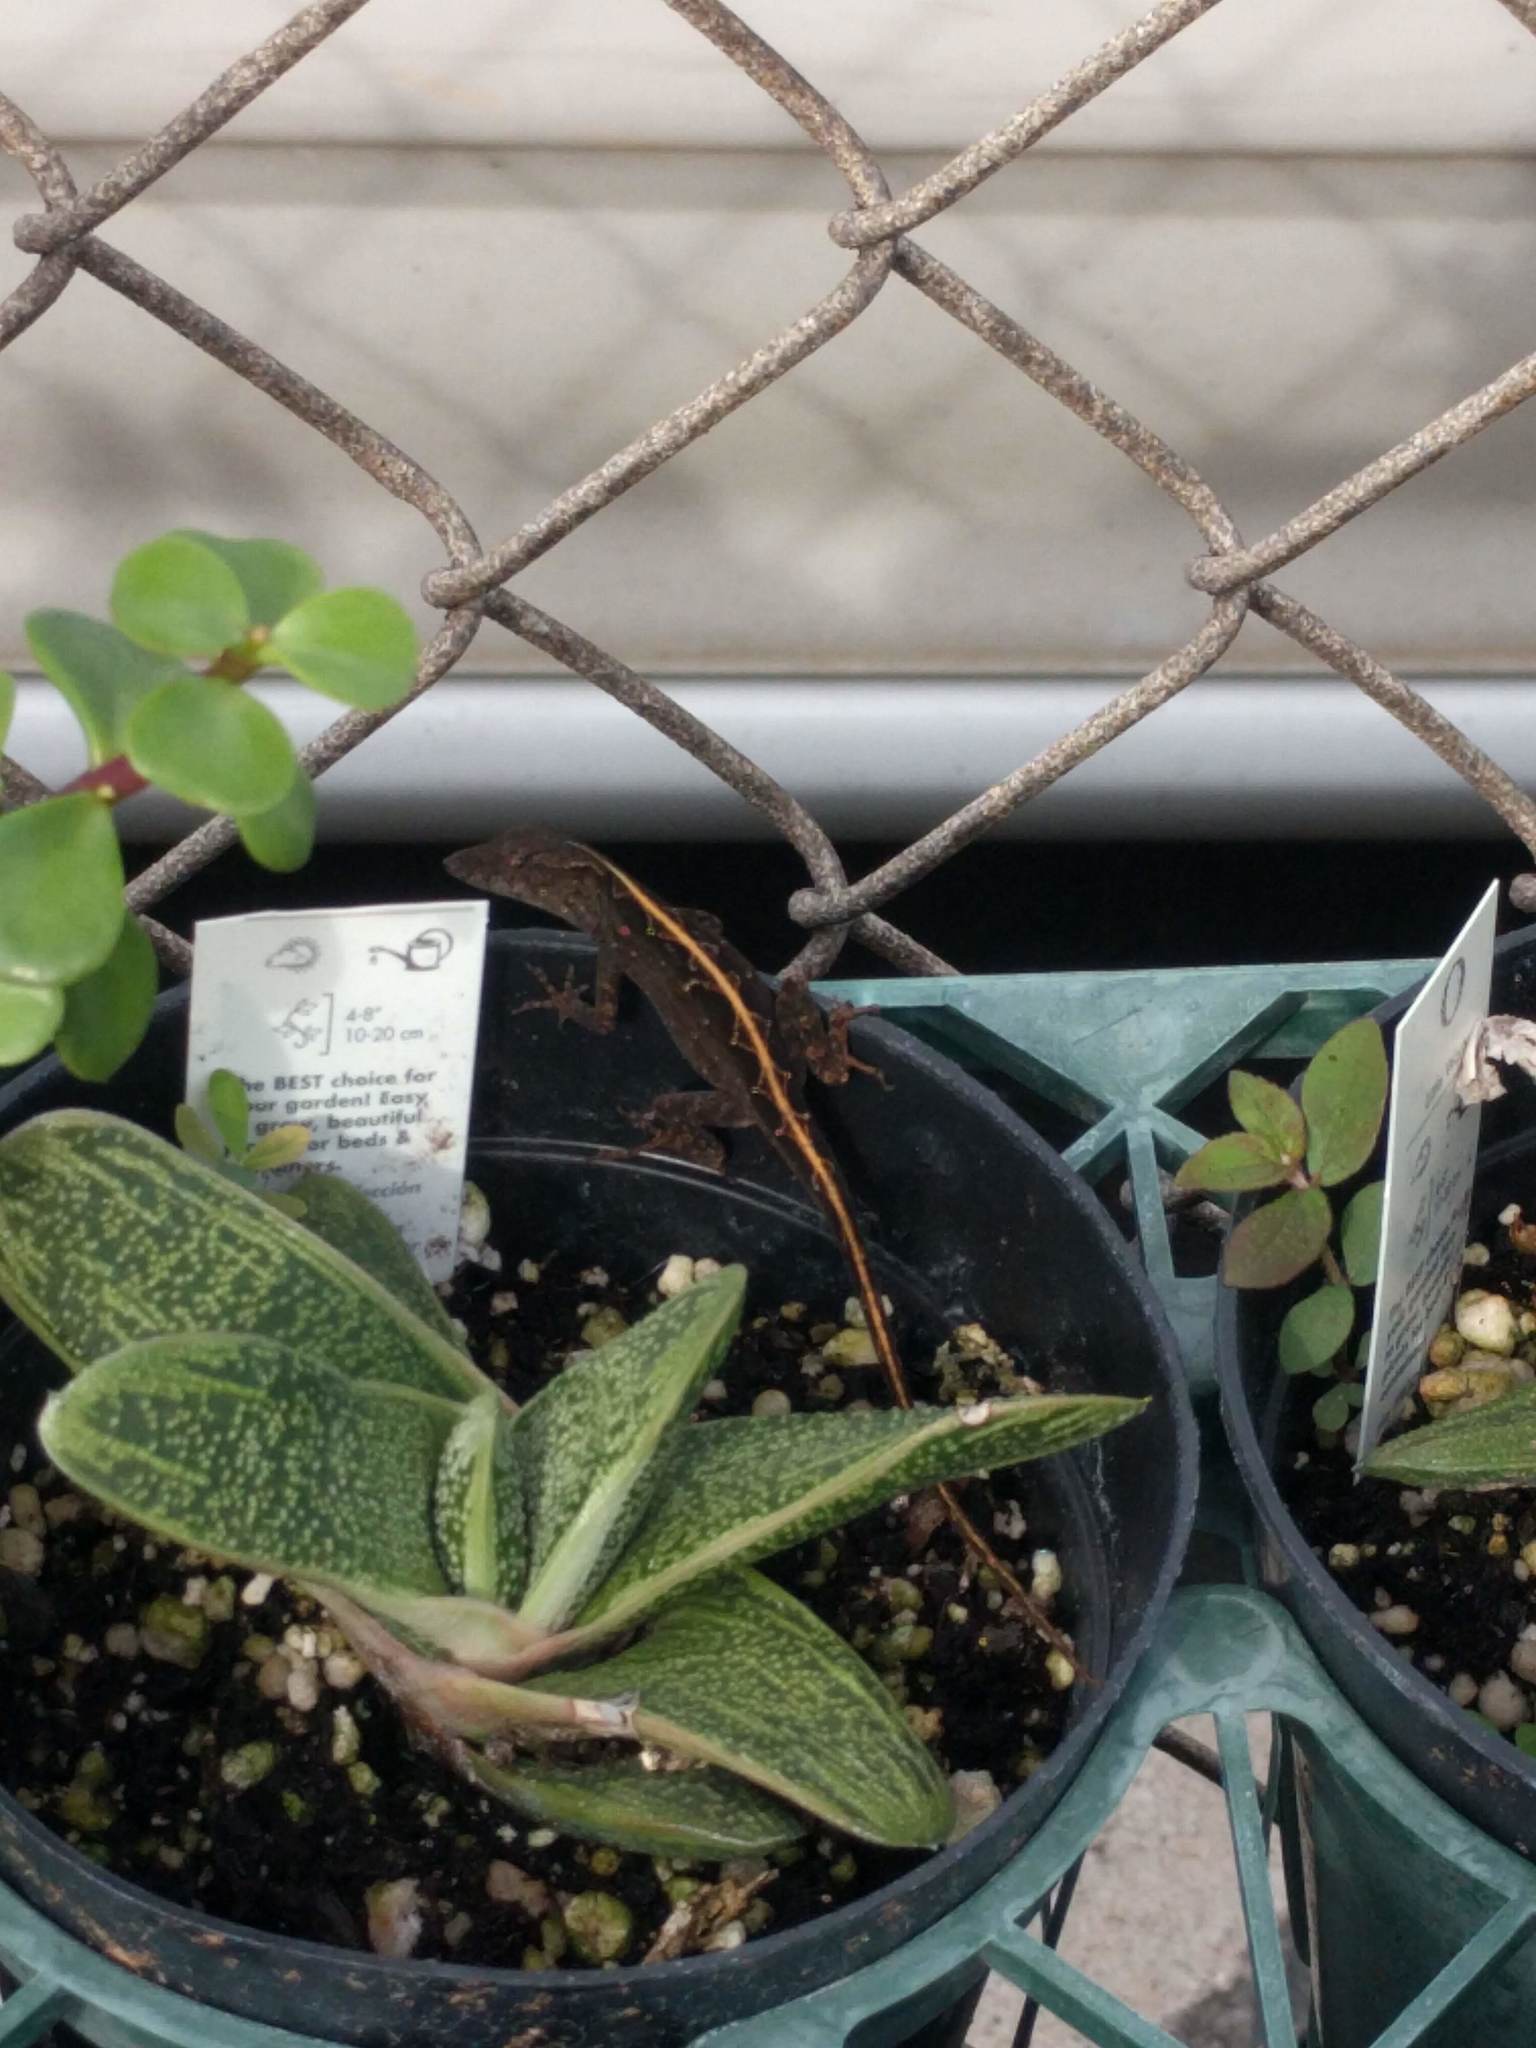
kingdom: Animalia
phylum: Chordata
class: Squamata
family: Dactyloidae
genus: Anolis
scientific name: Anolis sagrei
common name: Brown anole
